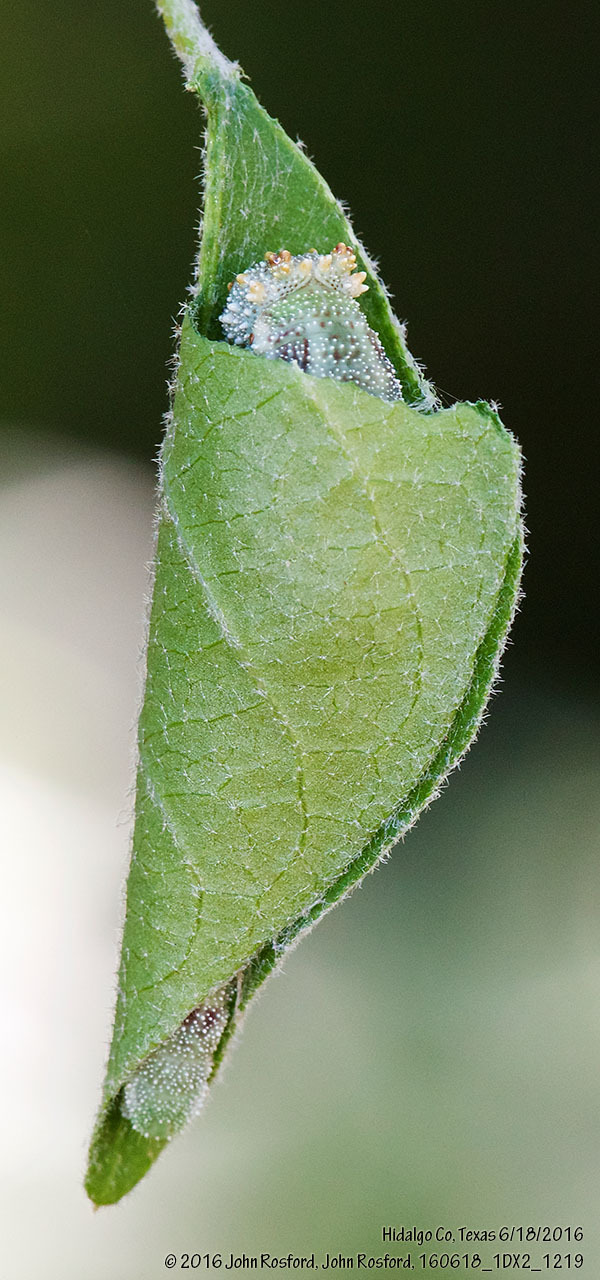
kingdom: Animalia
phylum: Arthropoda
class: Insecta
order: Lepidoptera
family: Nymphalidae
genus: Anaea
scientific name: Anaea aidea
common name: Tropical leafwing
